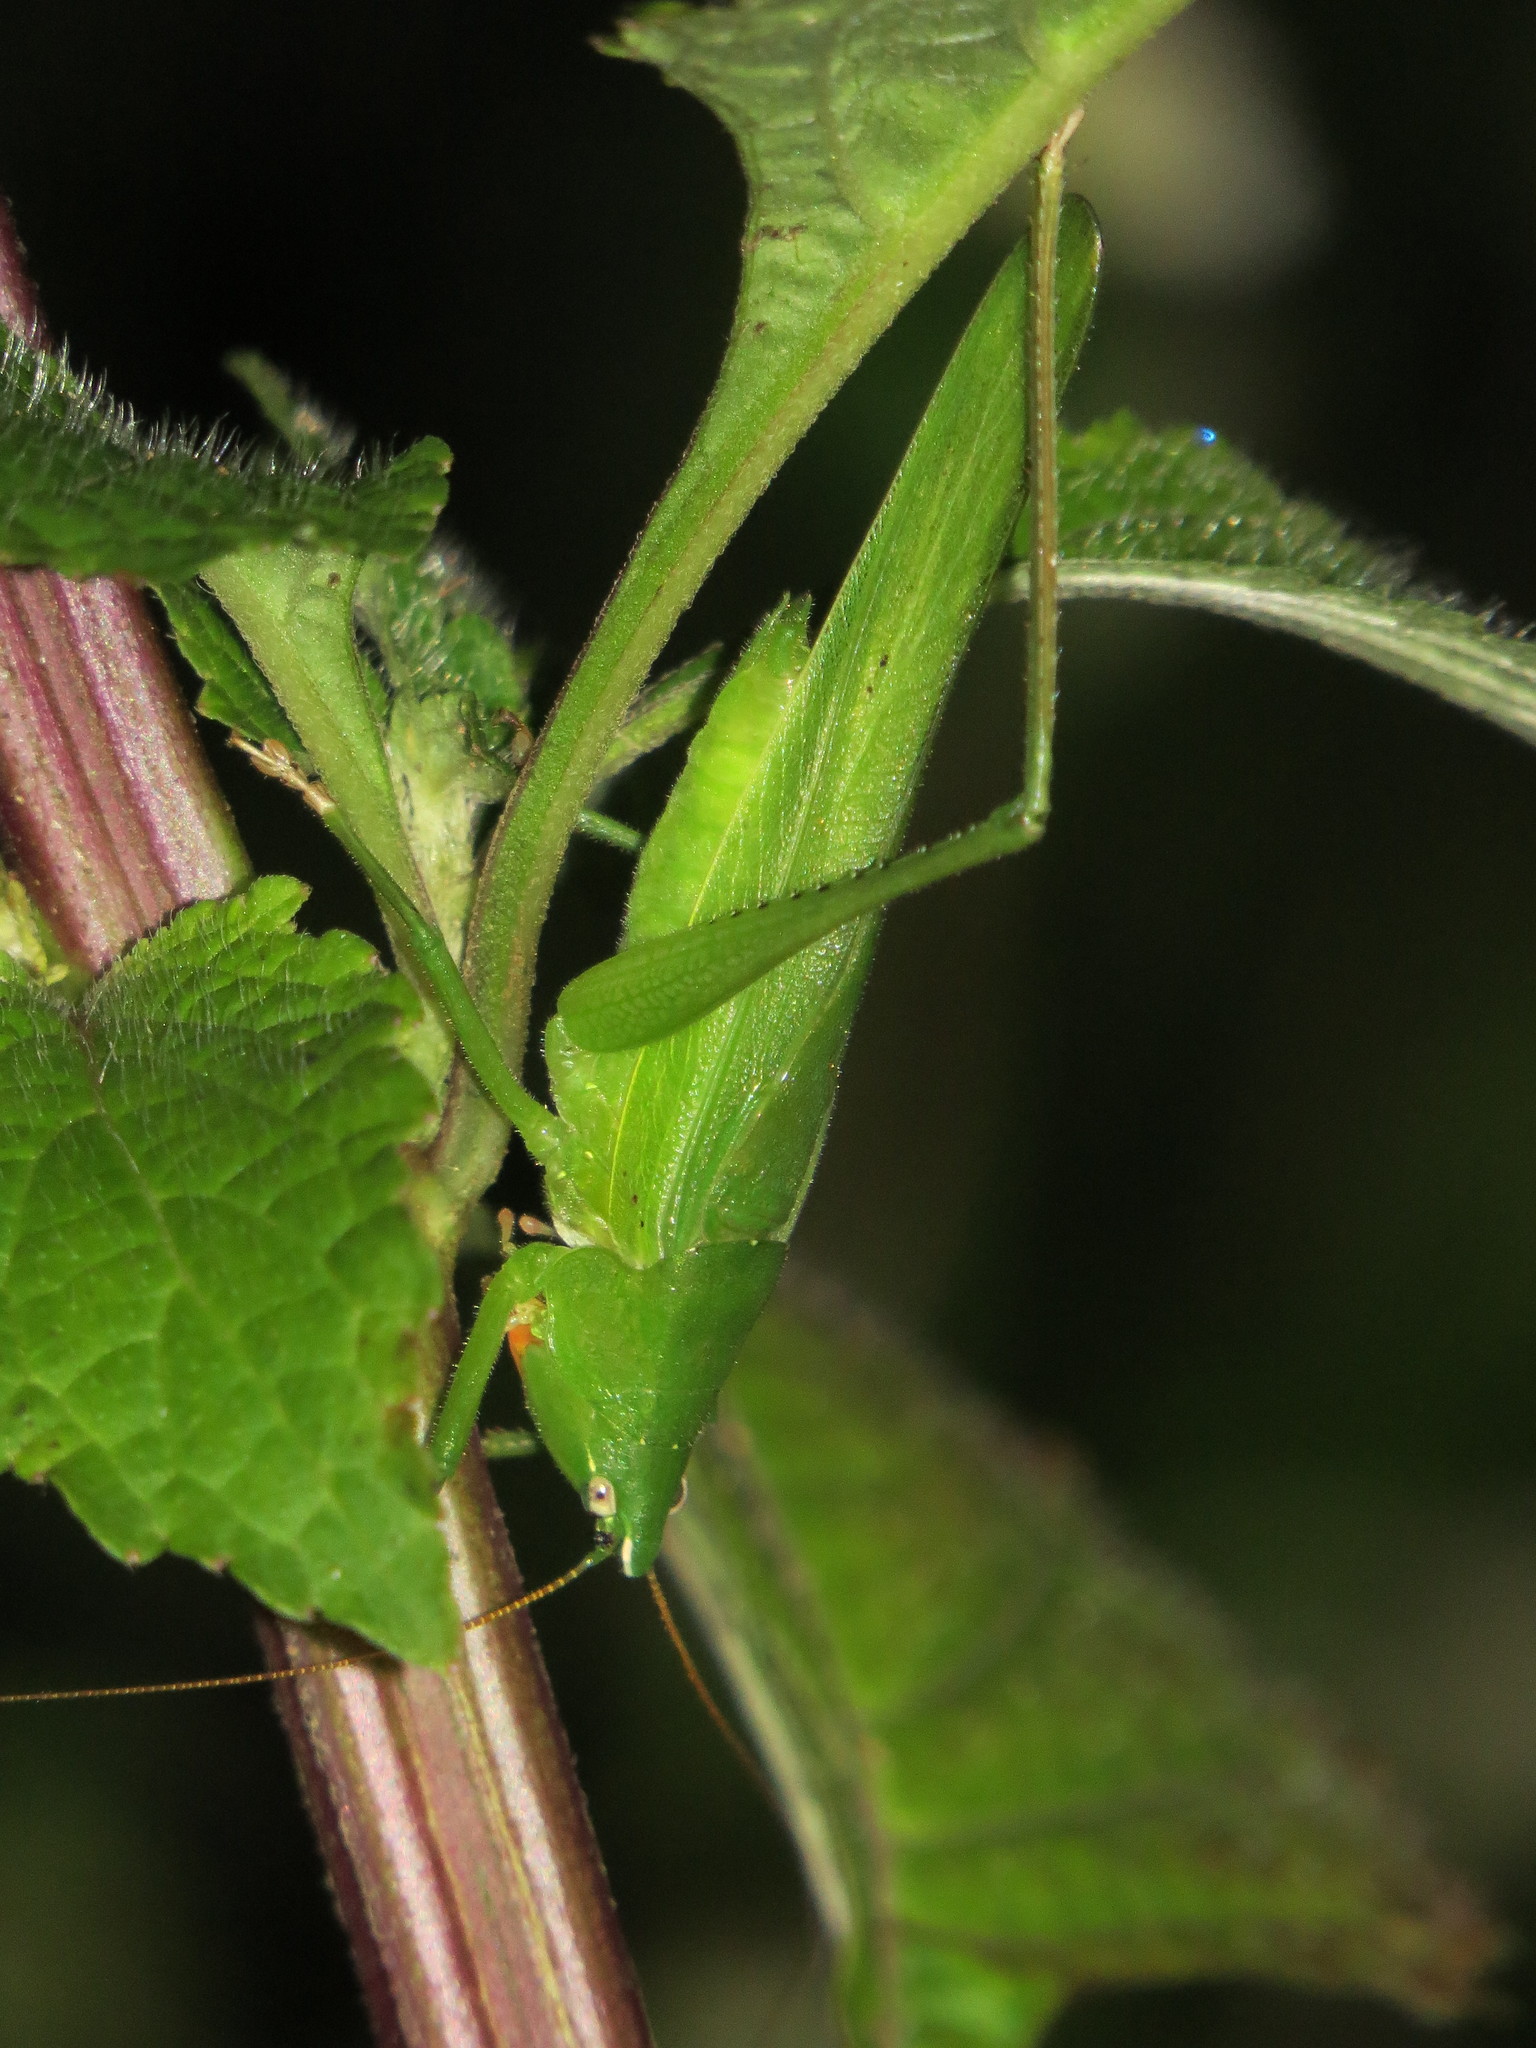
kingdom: Animalia
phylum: Arthropoda
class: Insecta
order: Orthoptera
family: Tettigoniidae
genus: Neoconocephalus
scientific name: Neoconocephalus triops
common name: Broad-tipped conehead
